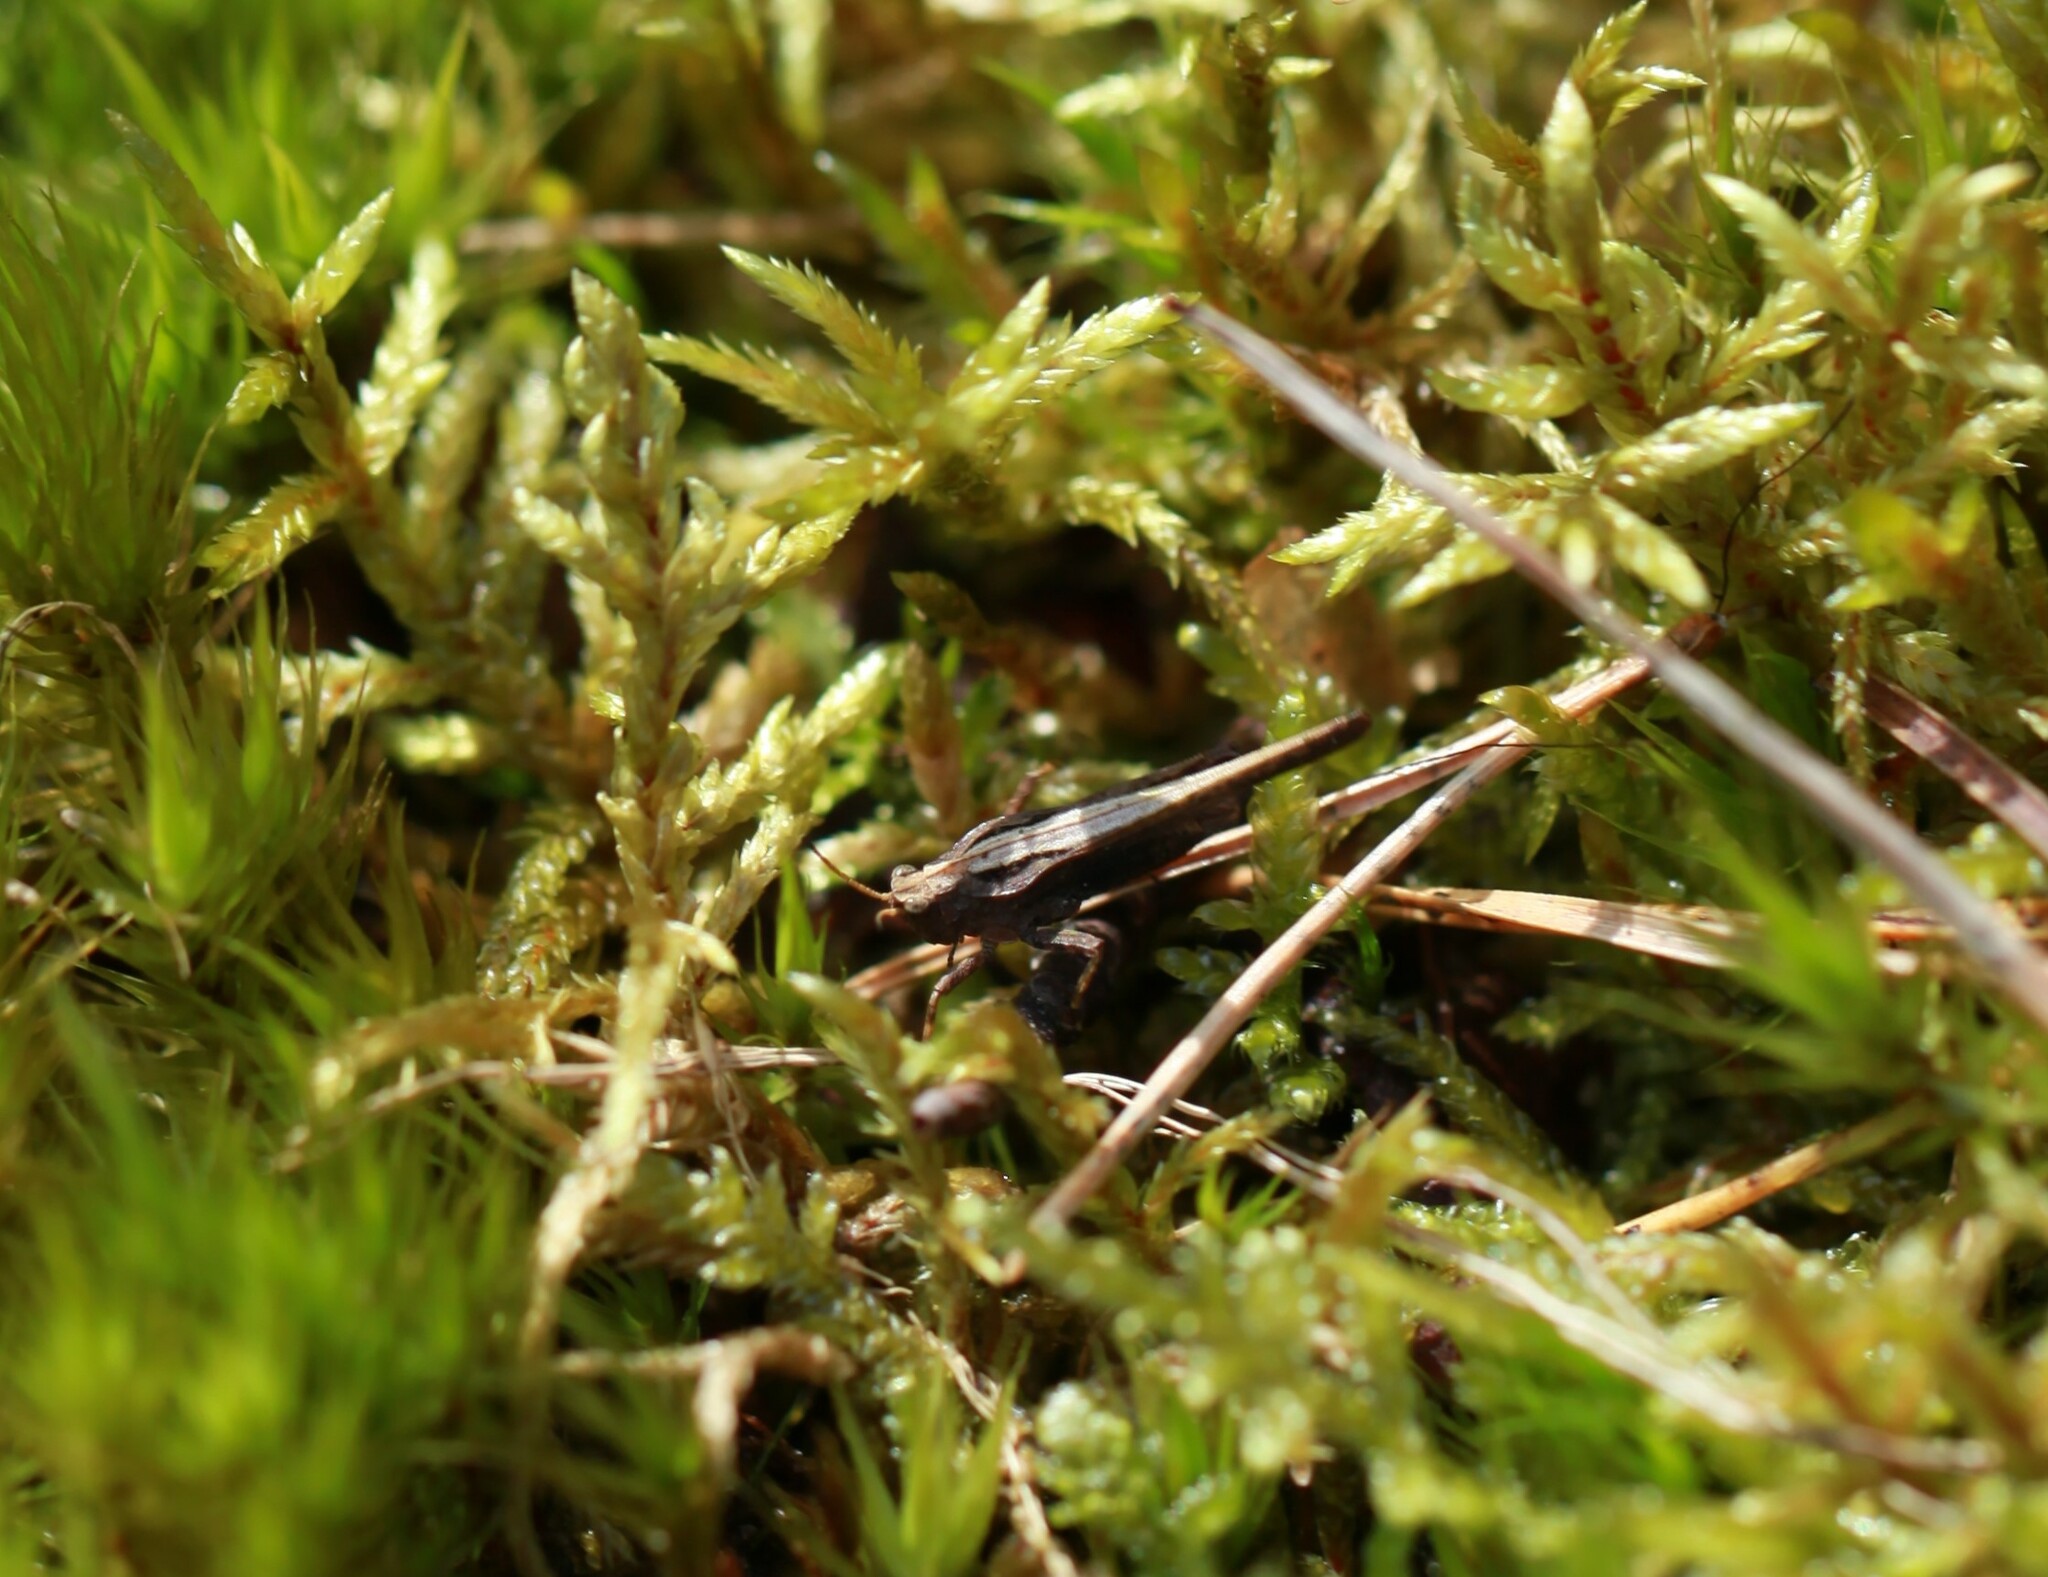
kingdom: Animalia
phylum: Arthropoda
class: Insecta
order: Orthoptera
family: Tetrigidae
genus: Tetrix
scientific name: Tetrix subulata
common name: Slender ground-hopper
